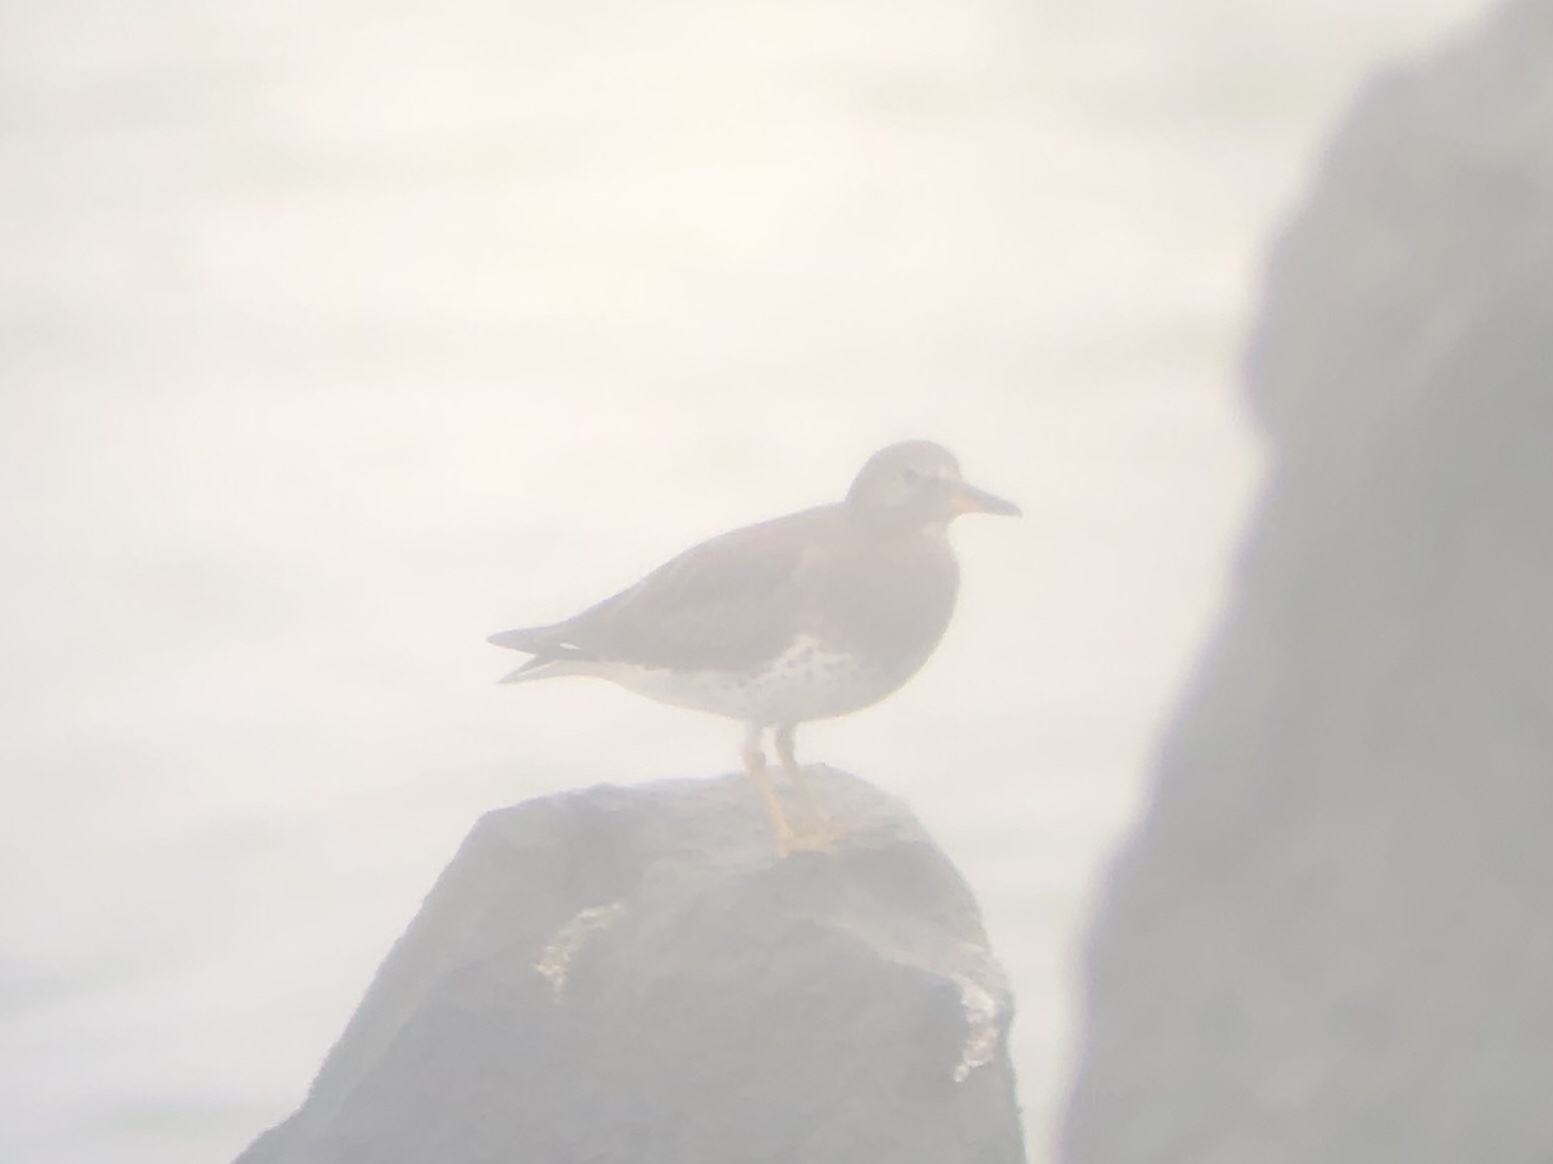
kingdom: Animalia
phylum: Chordata
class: Aves
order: Charadriiformes
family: Scolopacidae
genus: Calidris
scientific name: Calidris virgata
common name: Surfbird
